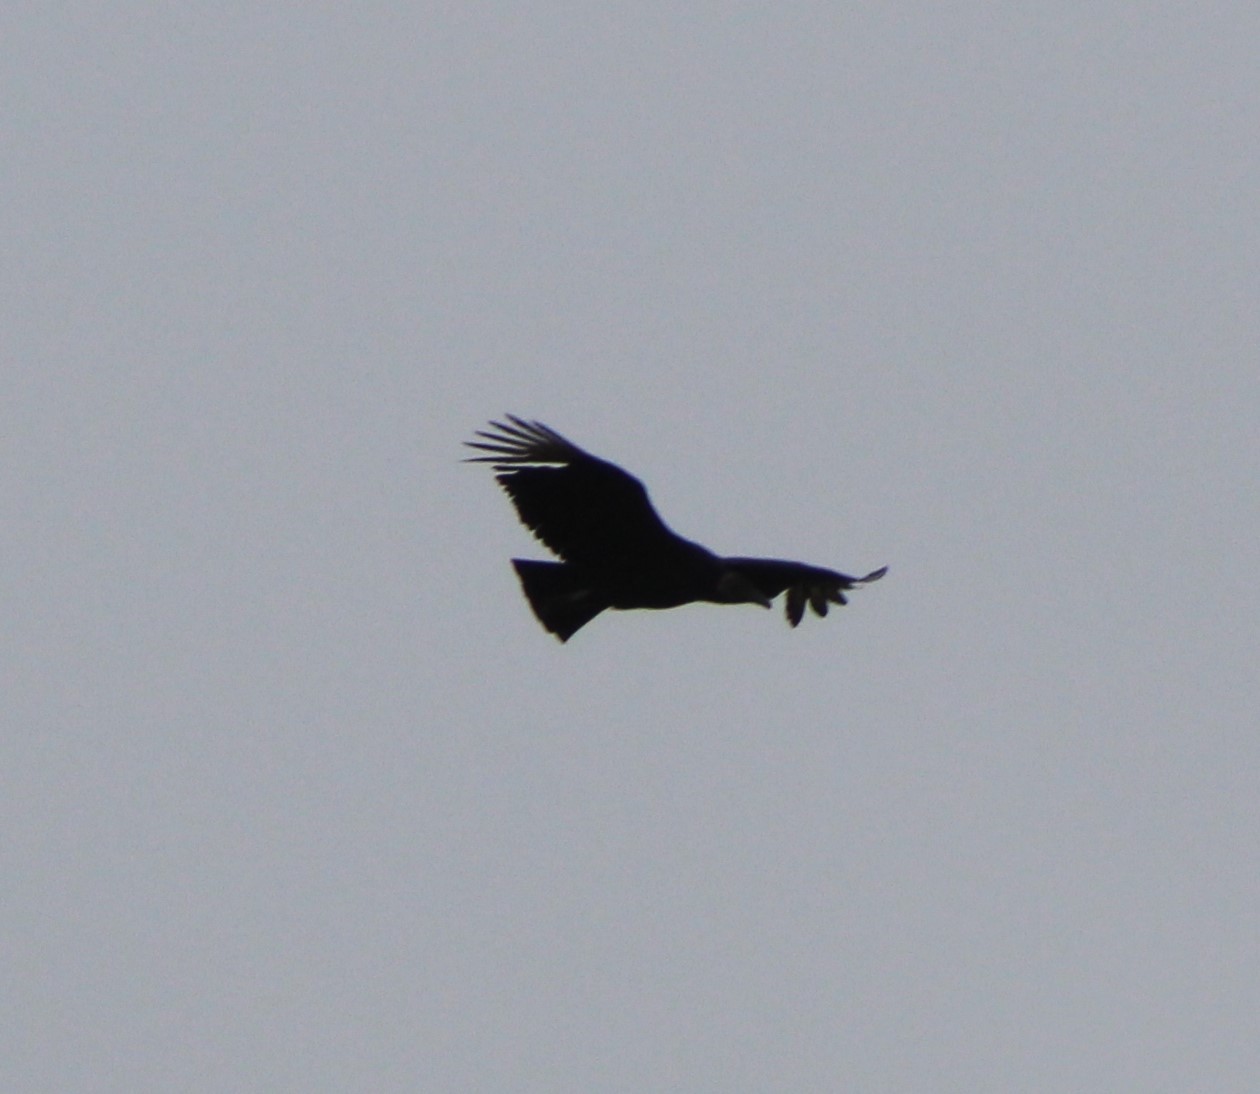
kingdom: Animalia
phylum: Chordata
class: Aves
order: Accipitriformes
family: Cathartidae
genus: Coragyps
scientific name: Coragyps atratus
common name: Black vulture
